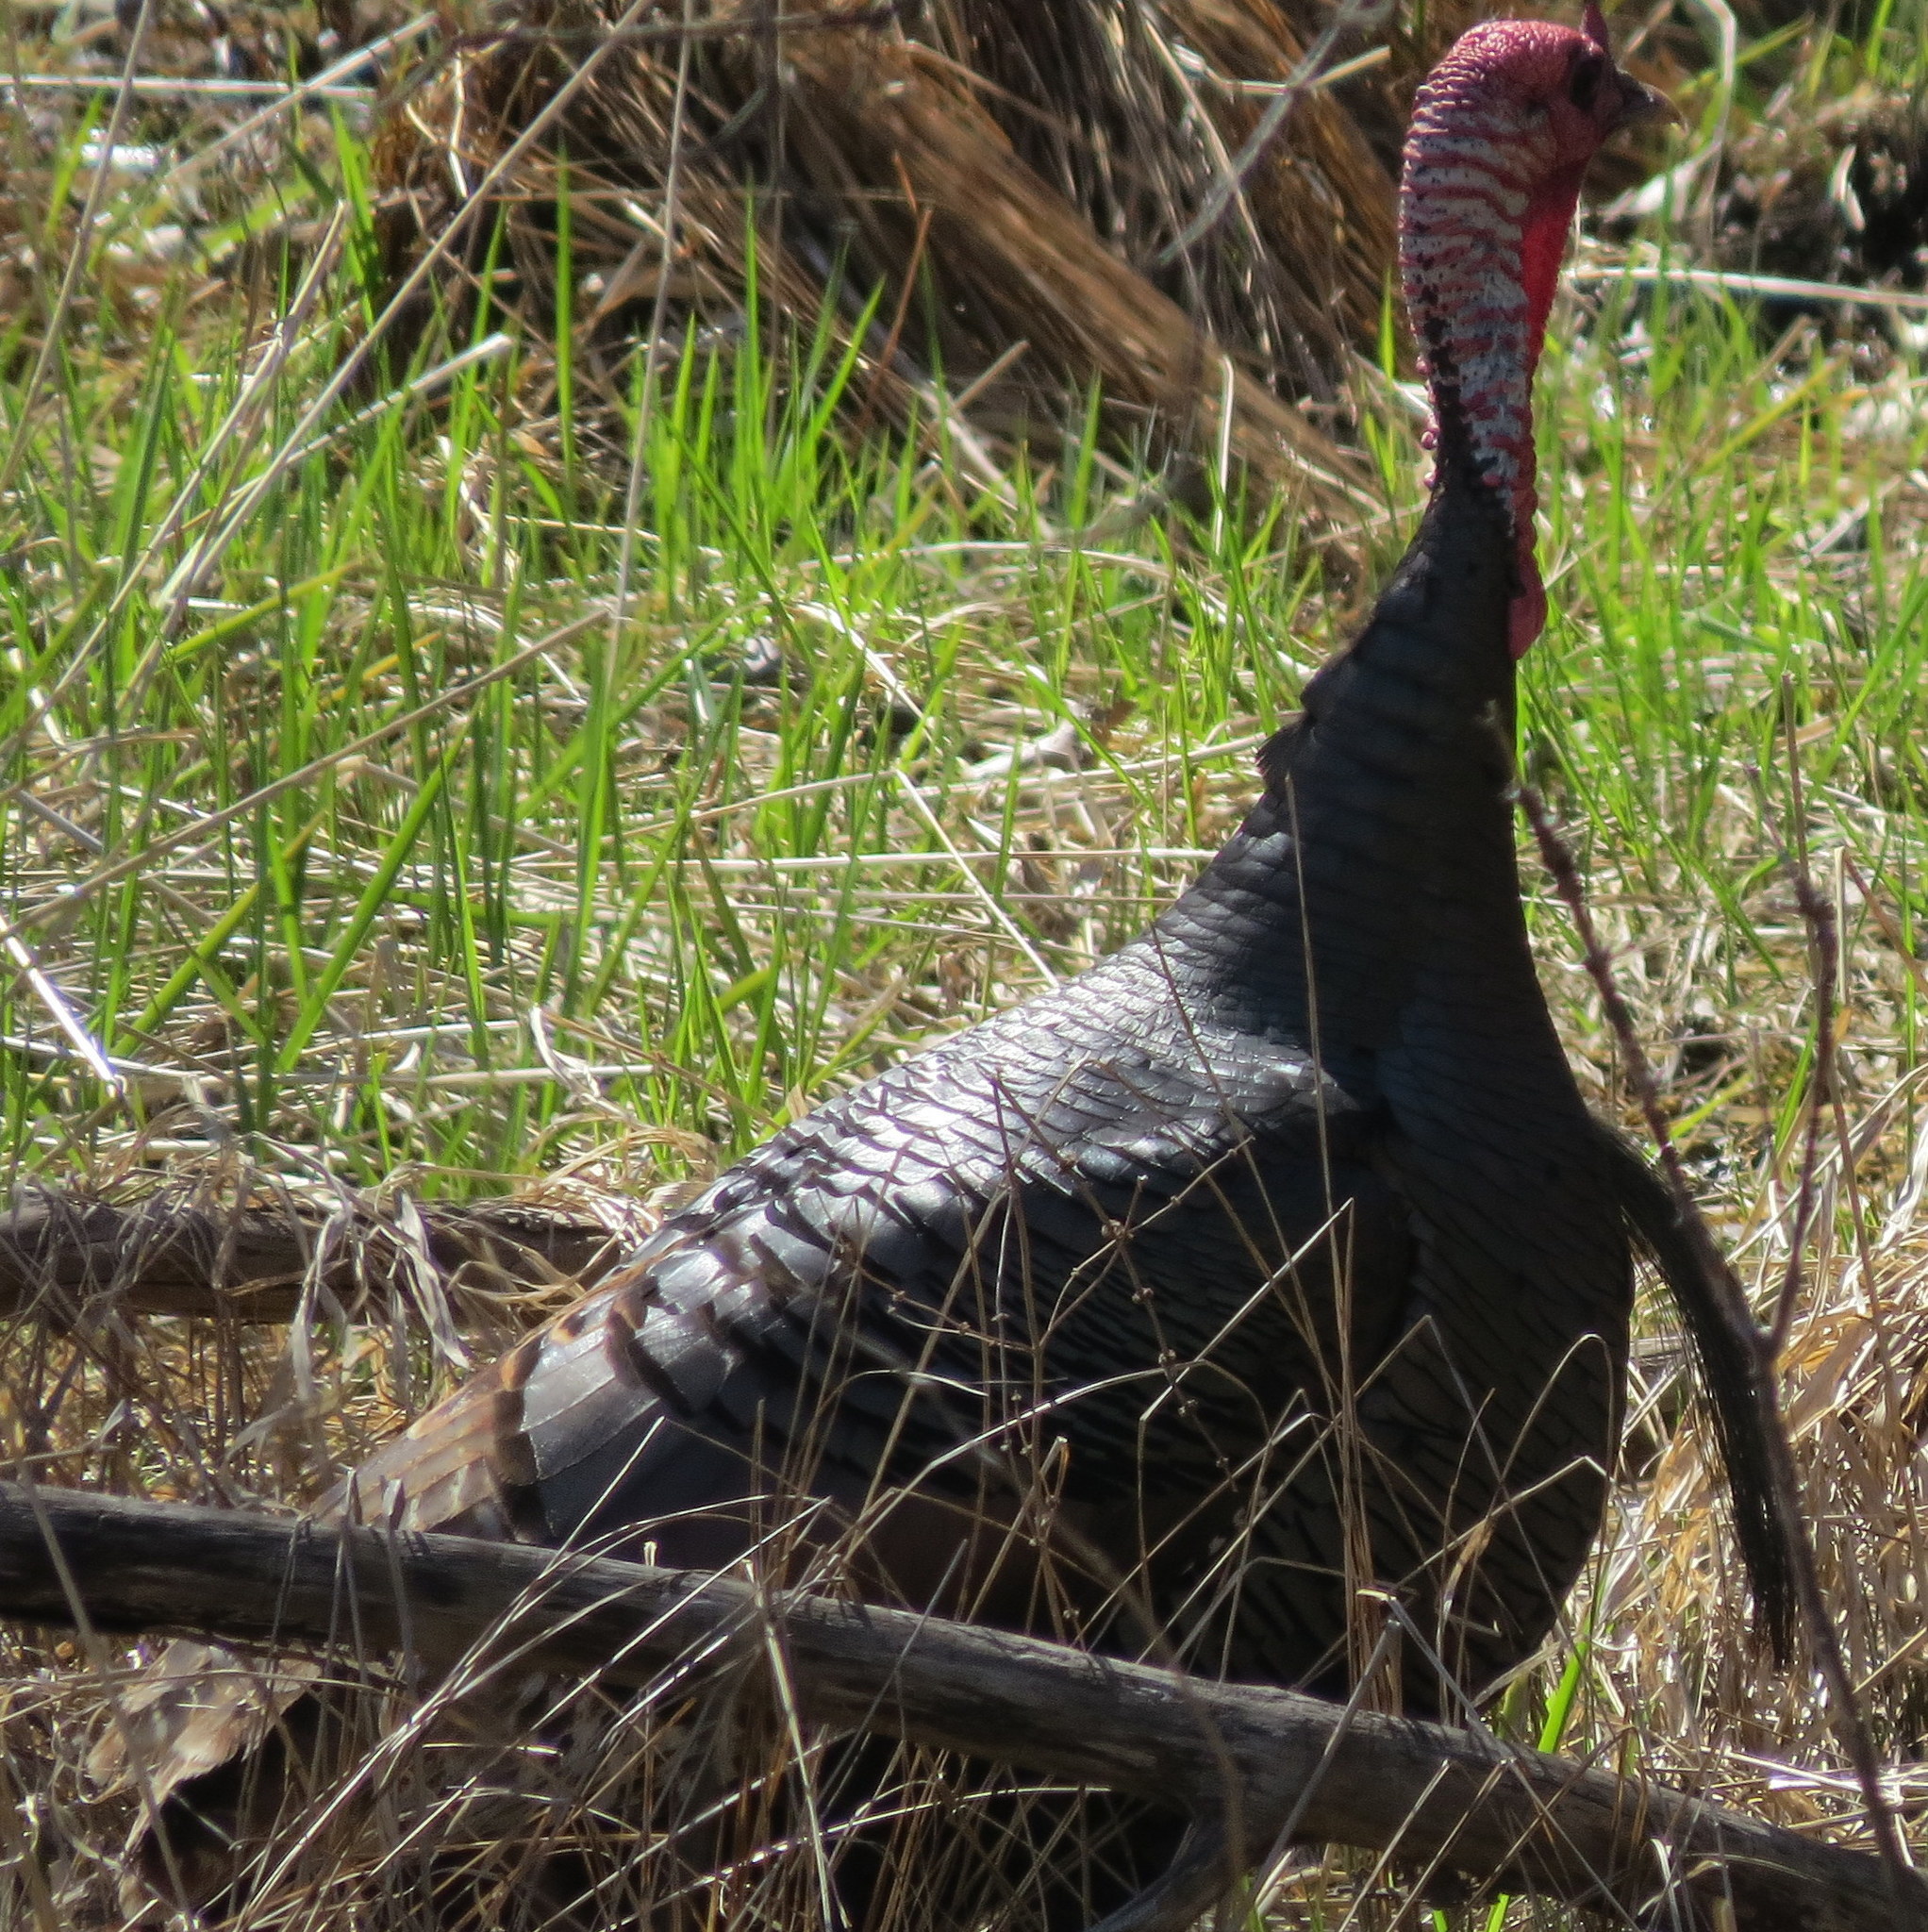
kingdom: Animalia
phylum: Chordata
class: Aves
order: Galliformes
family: Phasianidae
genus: Meleagris
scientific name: Meleagris gallopavo
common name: Wild turkey
